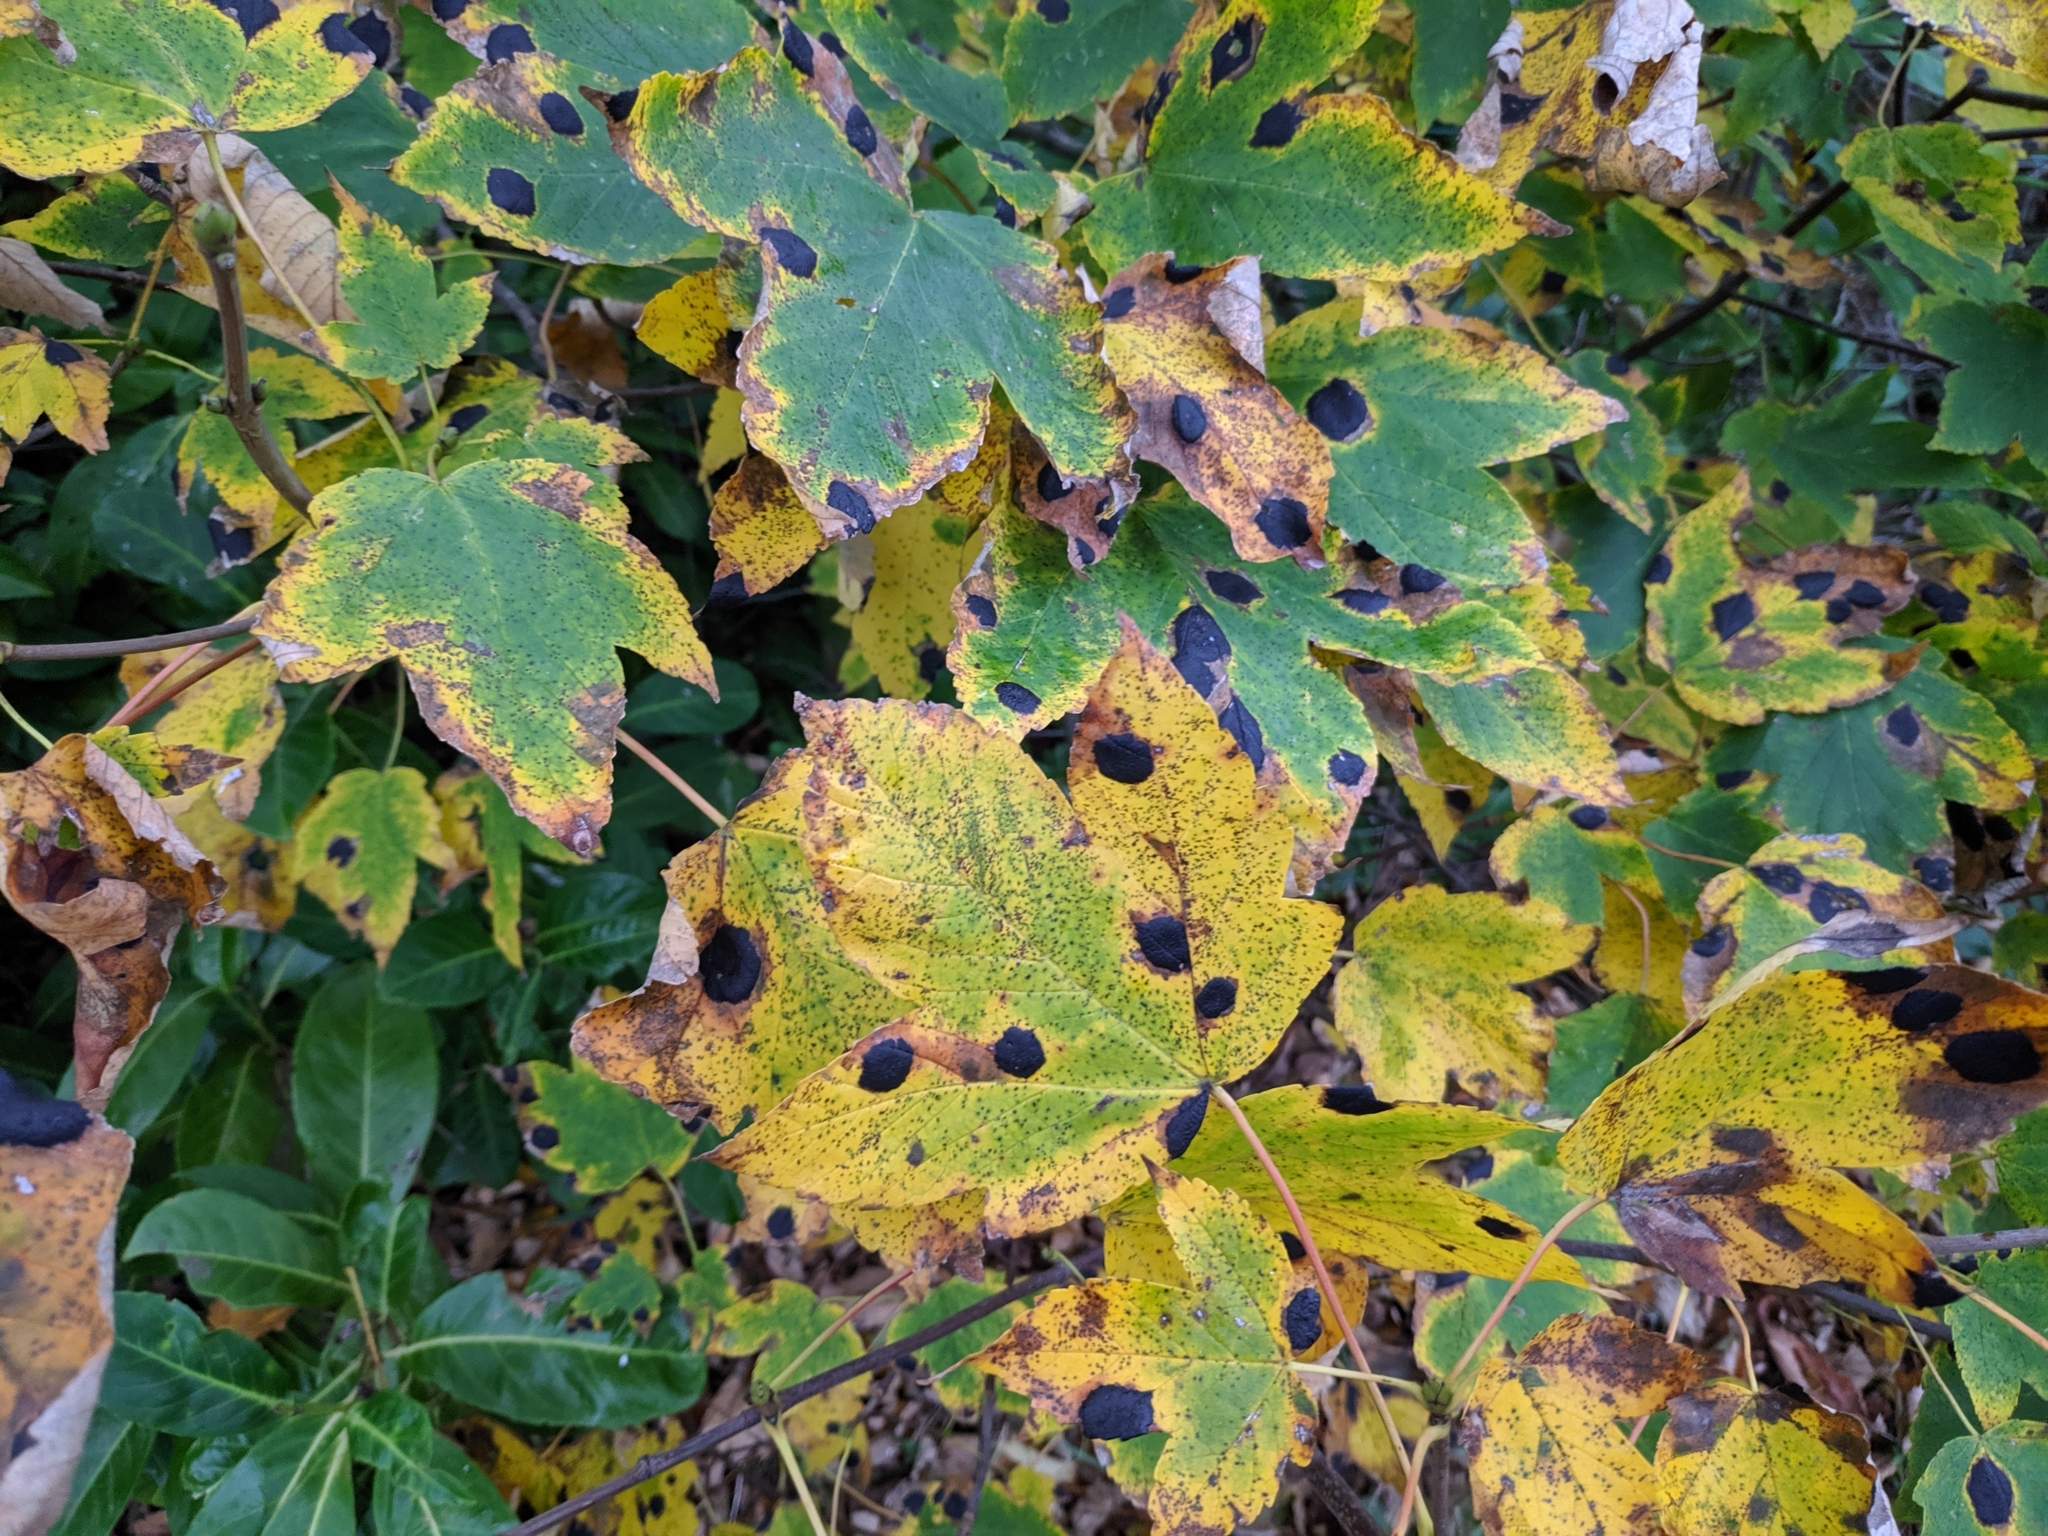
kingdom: Fungi
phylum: Ascomycota
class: Leotiomycetes
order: Rhytismatales
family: Rhytismataceae
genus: Rhytisma
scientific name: Rhytisma acerinum
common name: European tar spot
